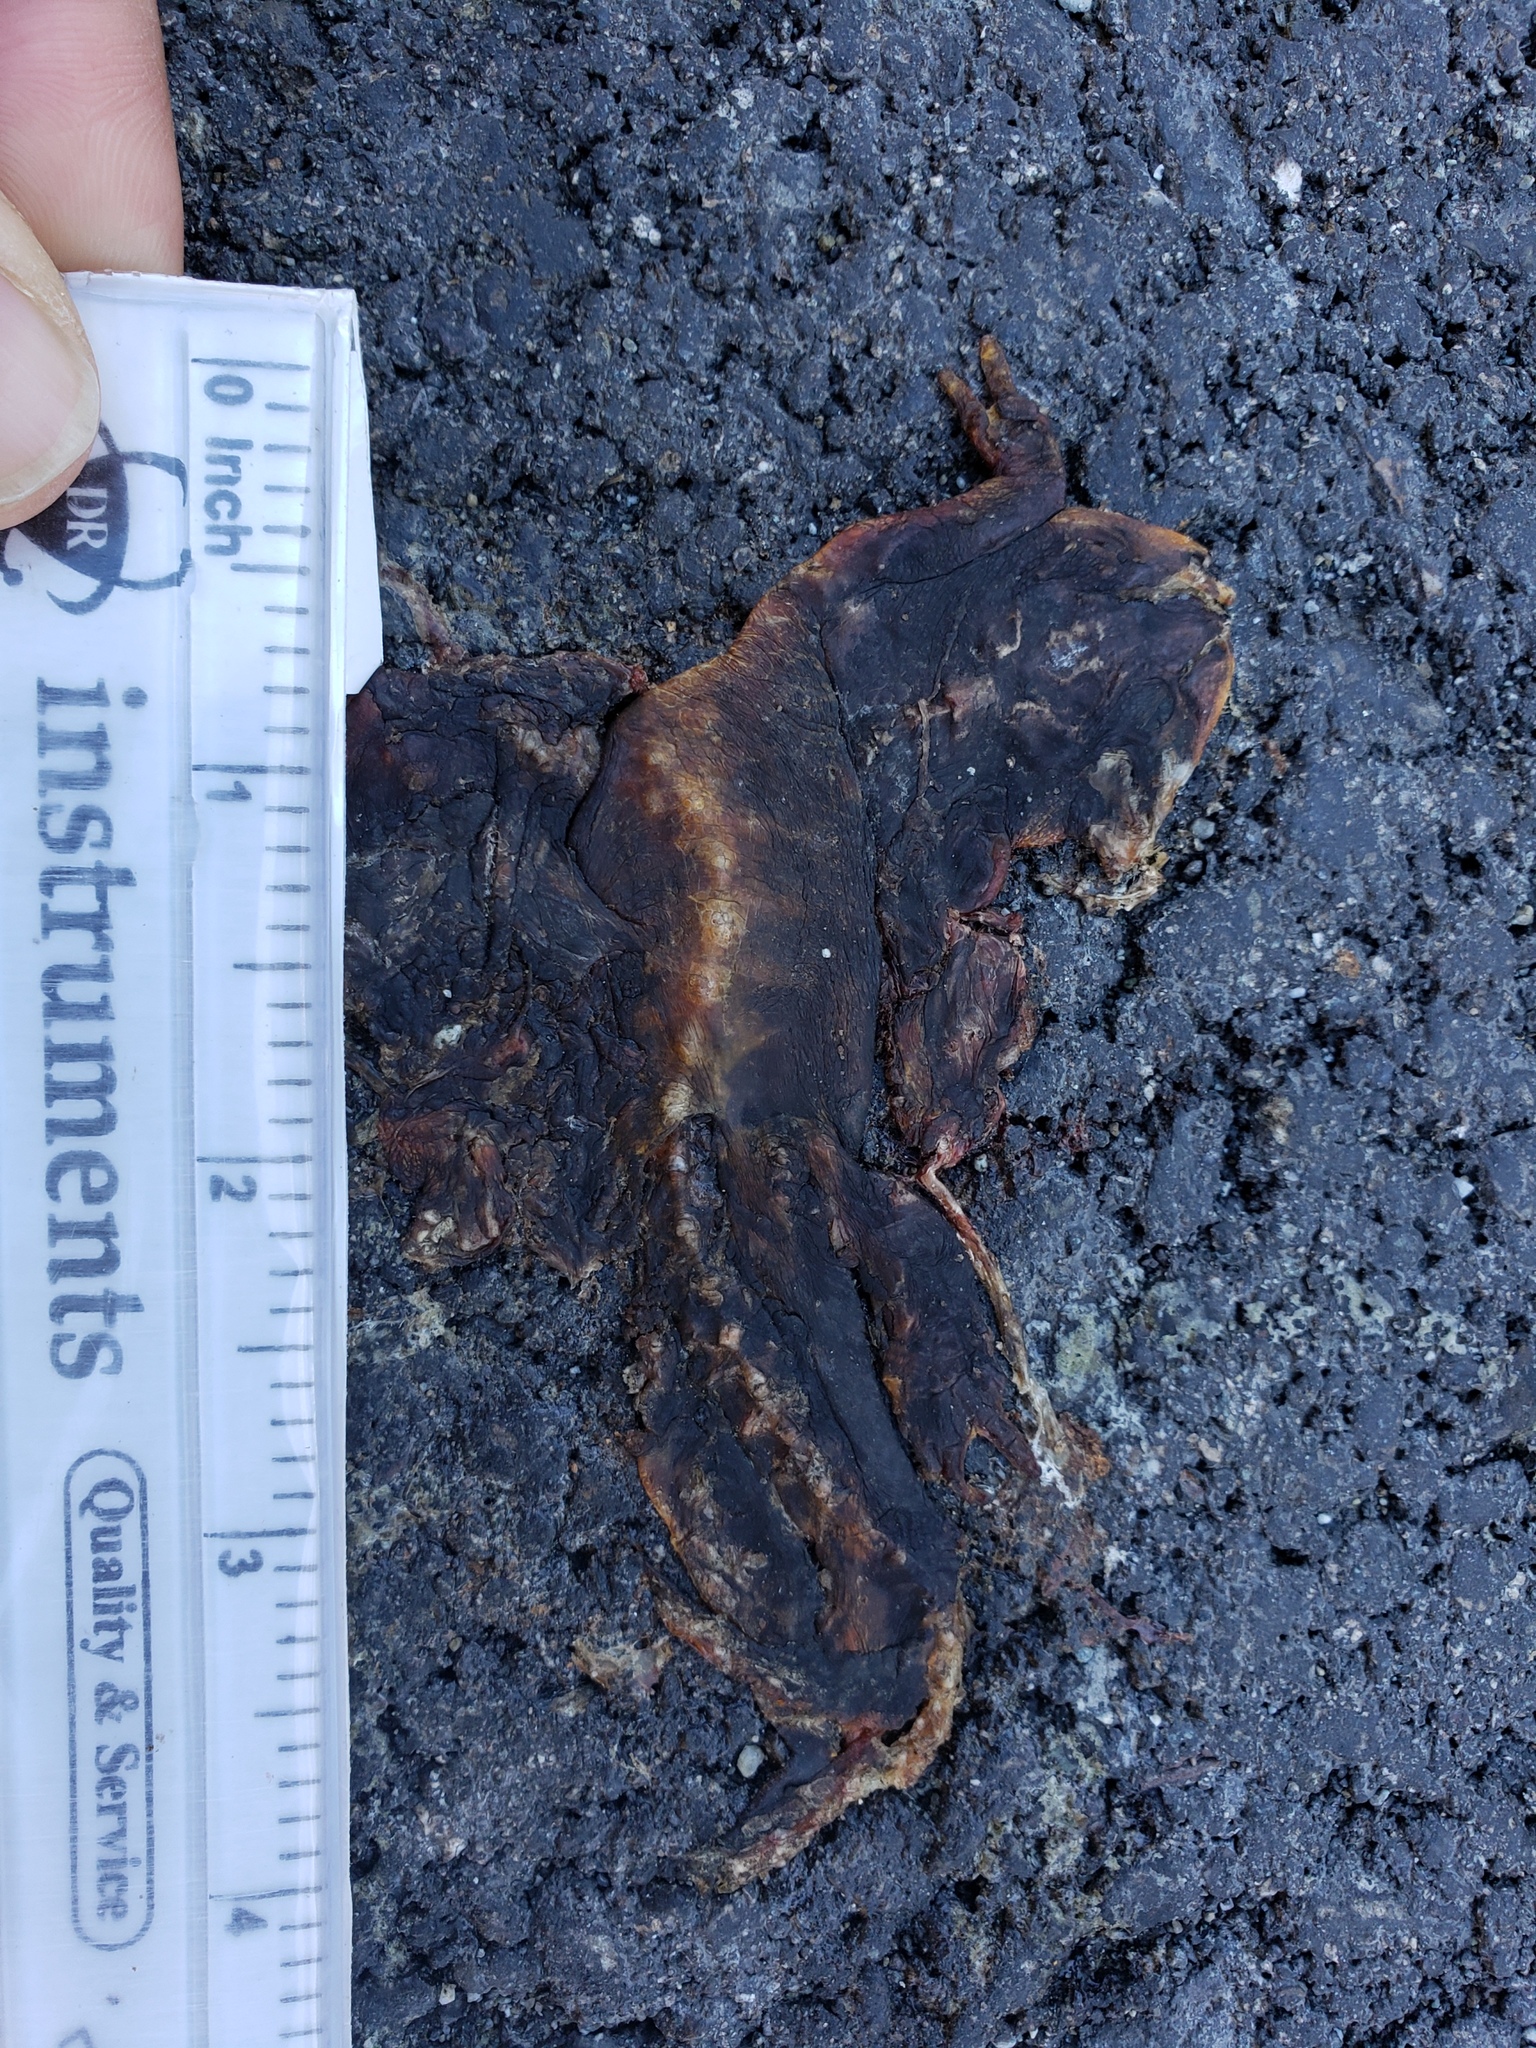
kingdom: Animalia
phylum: Chordata
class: Amphibia
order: Caudata
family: Salamandridae
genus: Taricha
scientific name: Taricha
